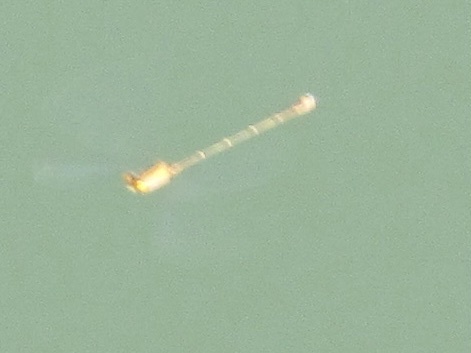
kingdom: Animalia
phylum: Arthropoda
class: Insecta
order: Odonata
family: Coenagrionidae
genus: Enallagma
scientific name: Enallagma signatum
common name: Orange bluet
